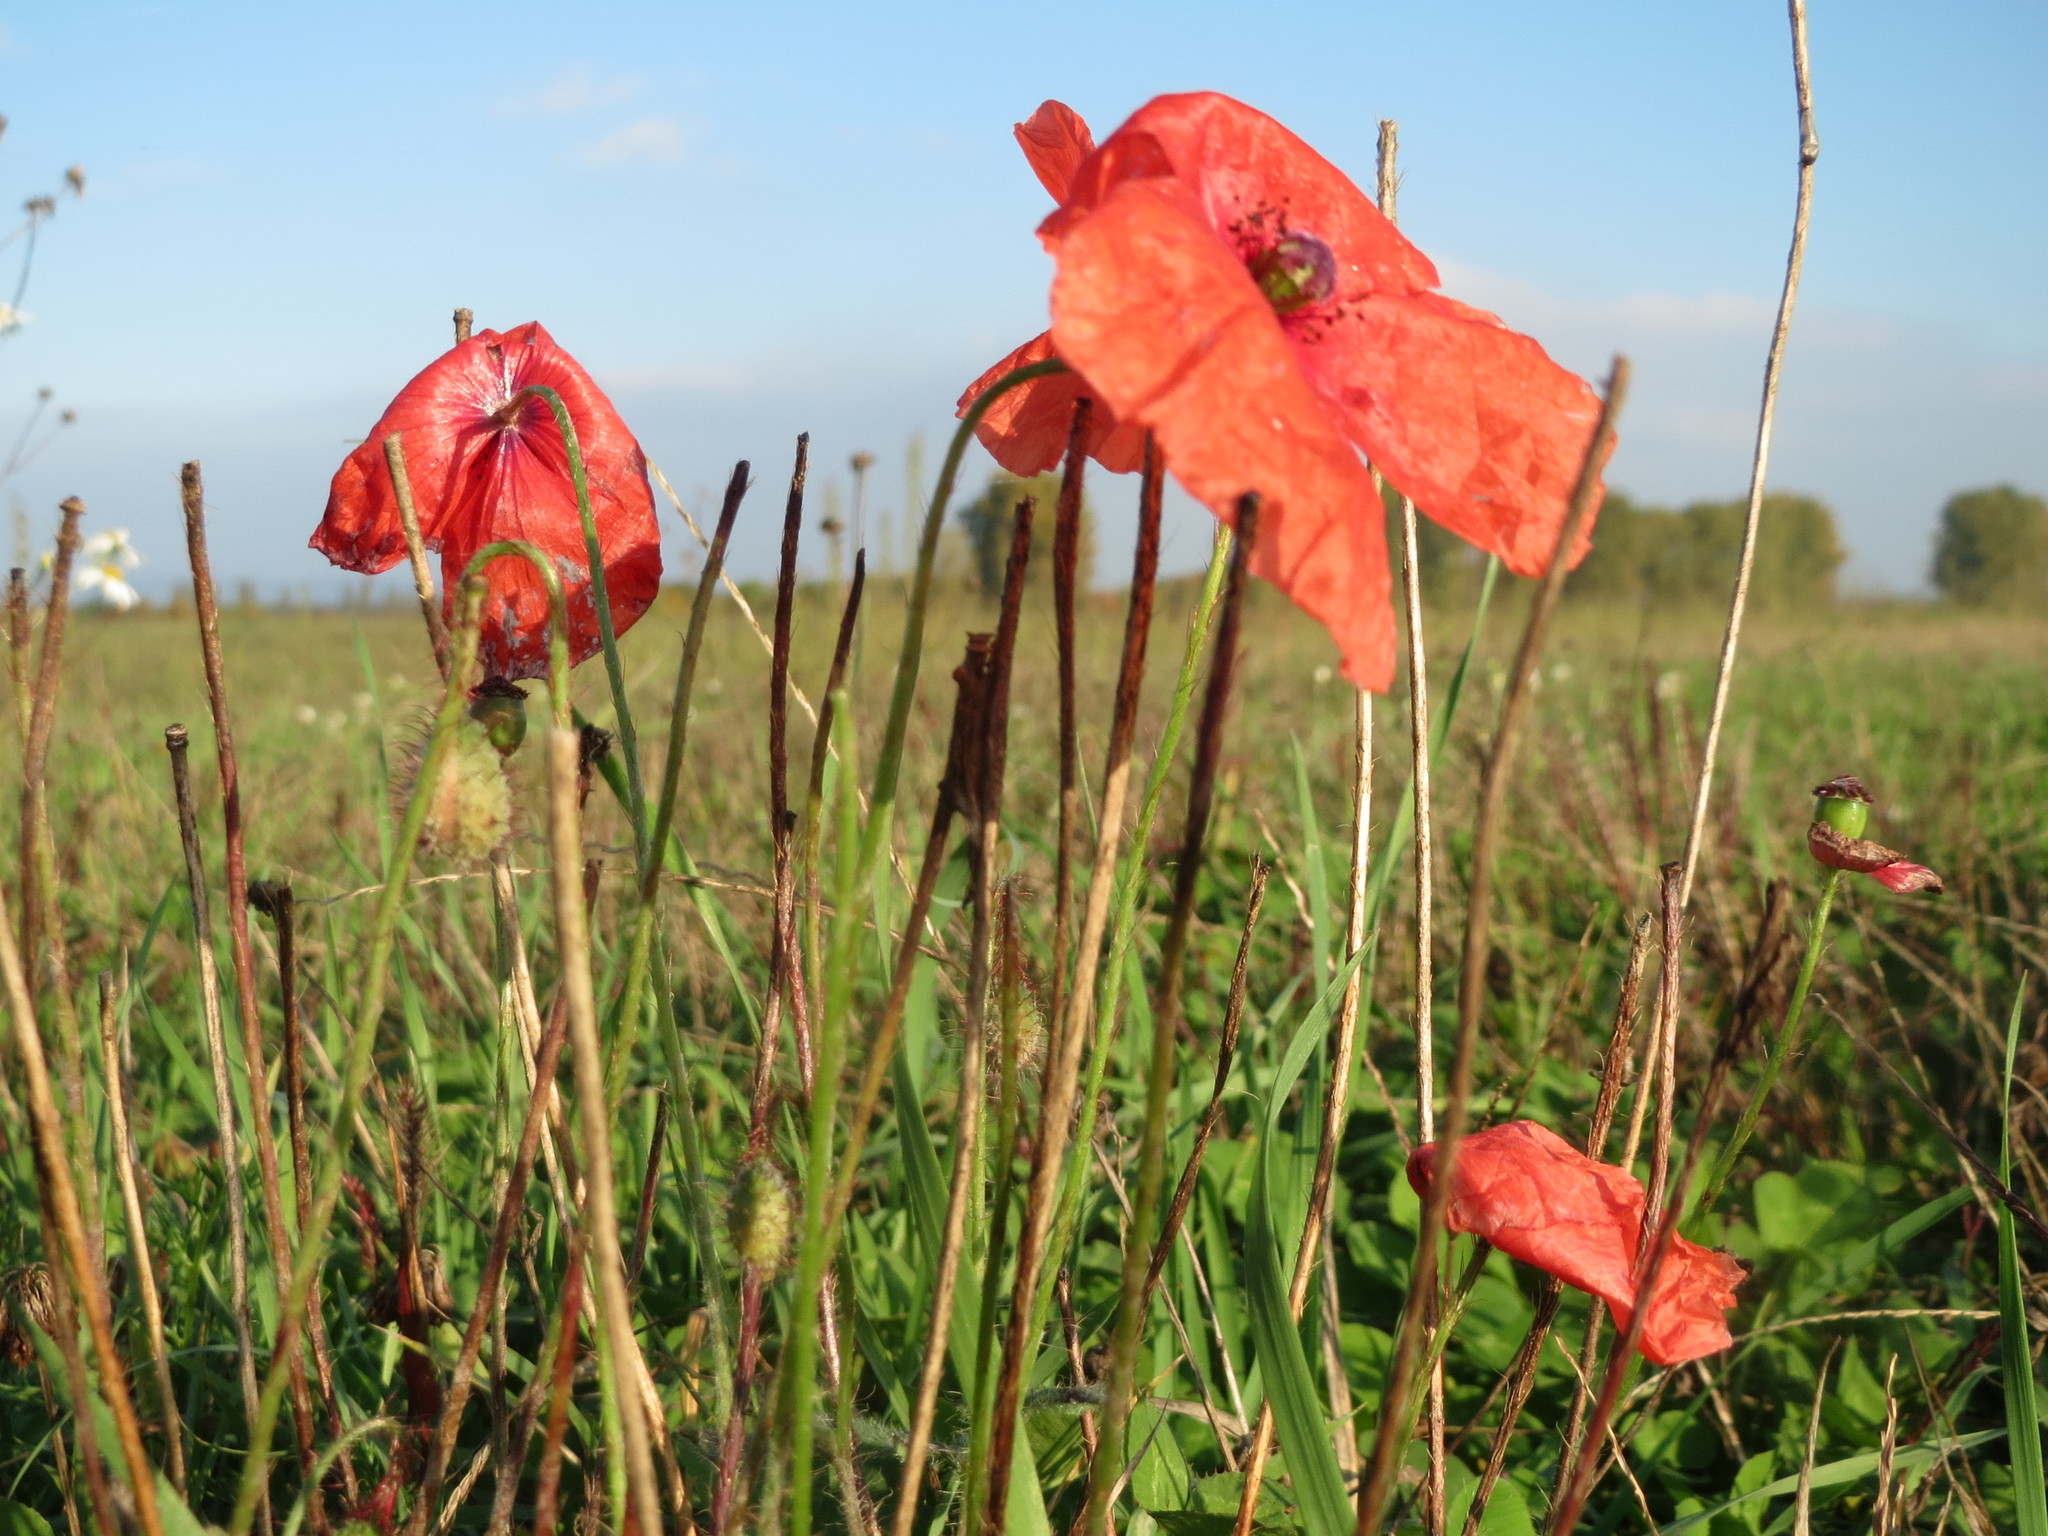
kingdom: Plantae
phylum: Tracheophyta
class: Magnoliopsida
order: Ranunculales
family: Papaveraceae
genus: Papaver
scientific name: Papaver rhoeas
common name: Corn poppy
